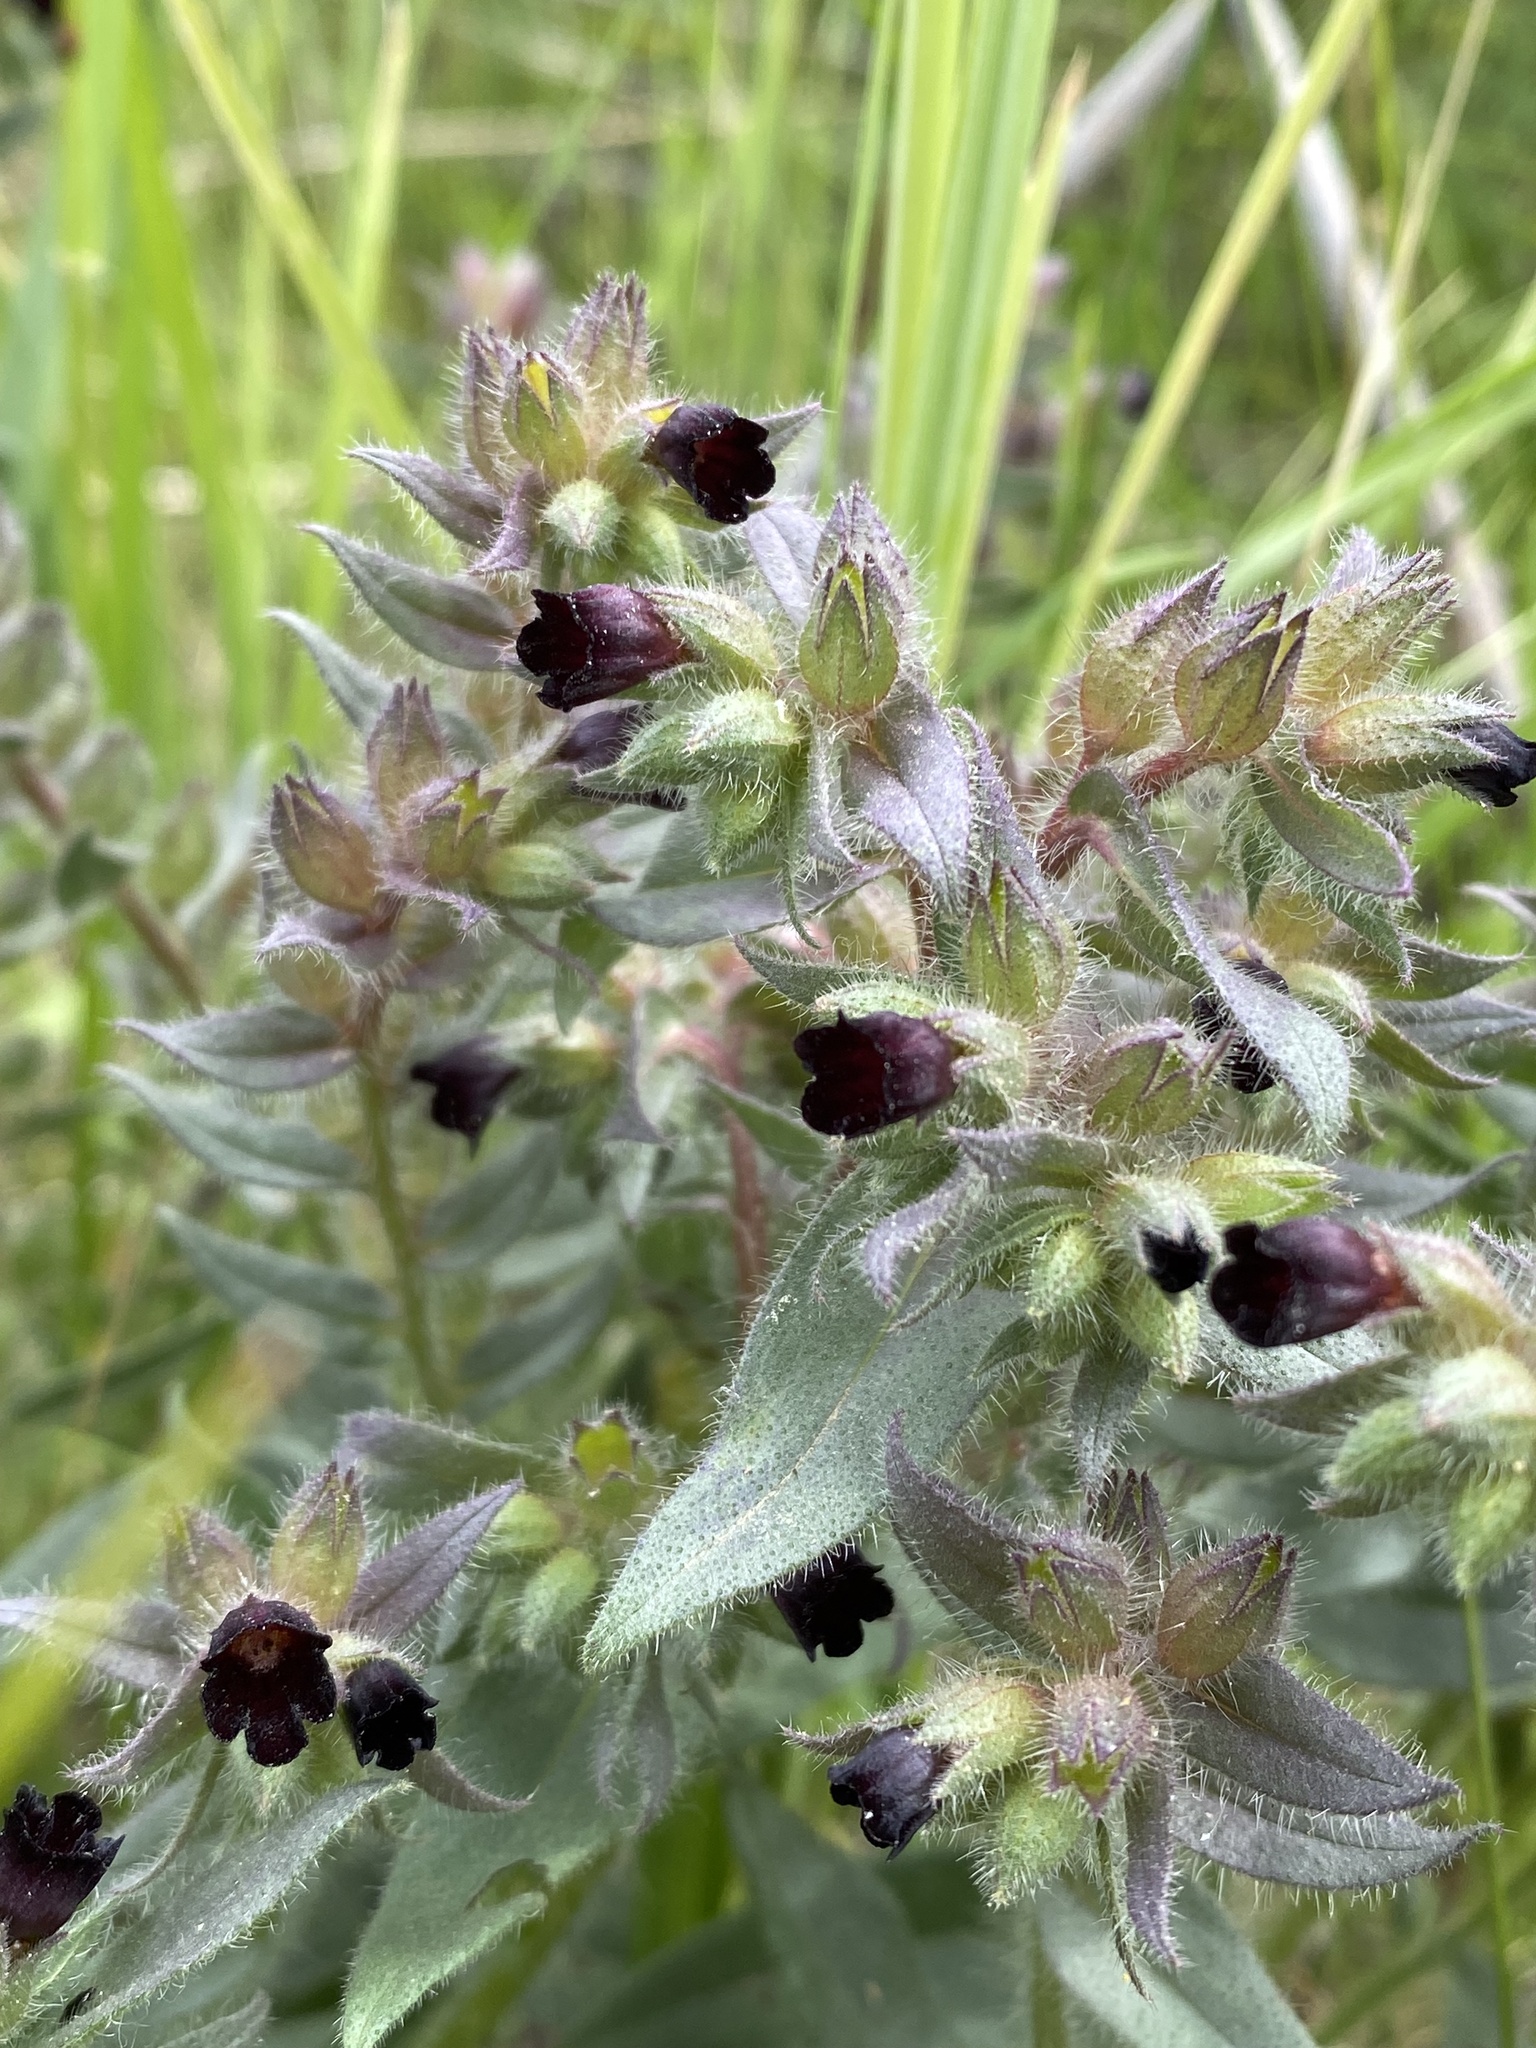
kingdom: Plantae
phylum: Tracheophyta
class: Magnoliopsida
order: Boraginales
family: Boraginaceae
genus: Nonea
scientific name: Nonea pulla
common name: Brown nonea
